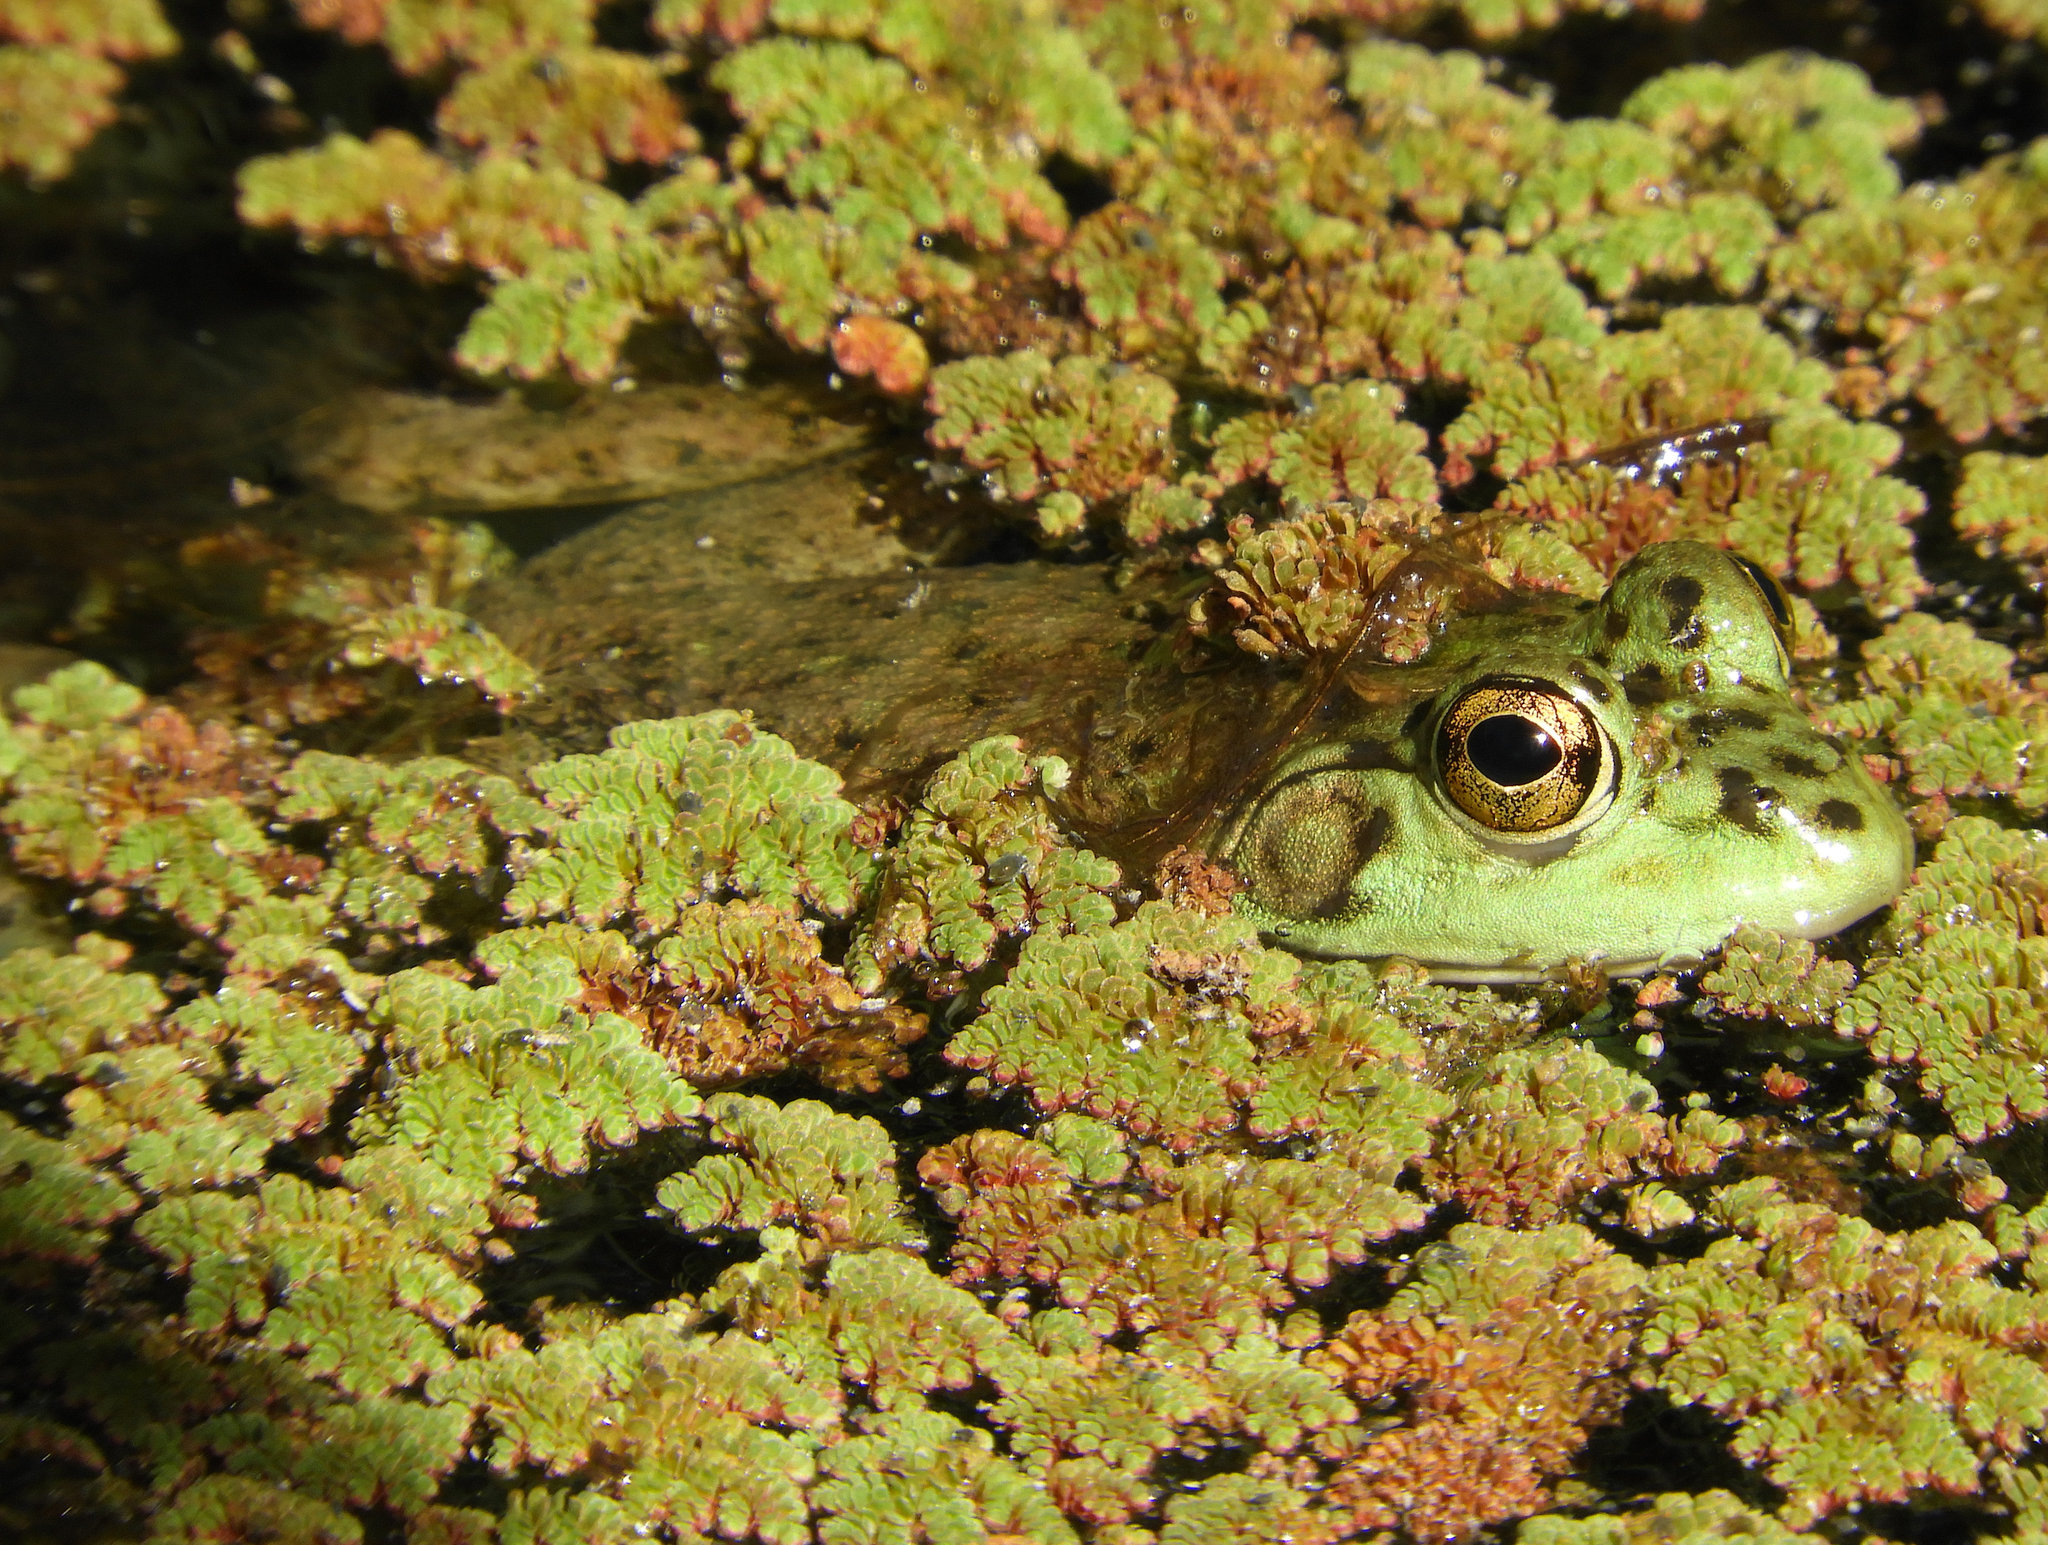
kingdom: Animalia
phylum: Chordata
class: Amphibia
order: Anura
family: Ranidae
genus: Lithobates
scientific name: Lithobates catesbeianus
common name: American bullfrog
